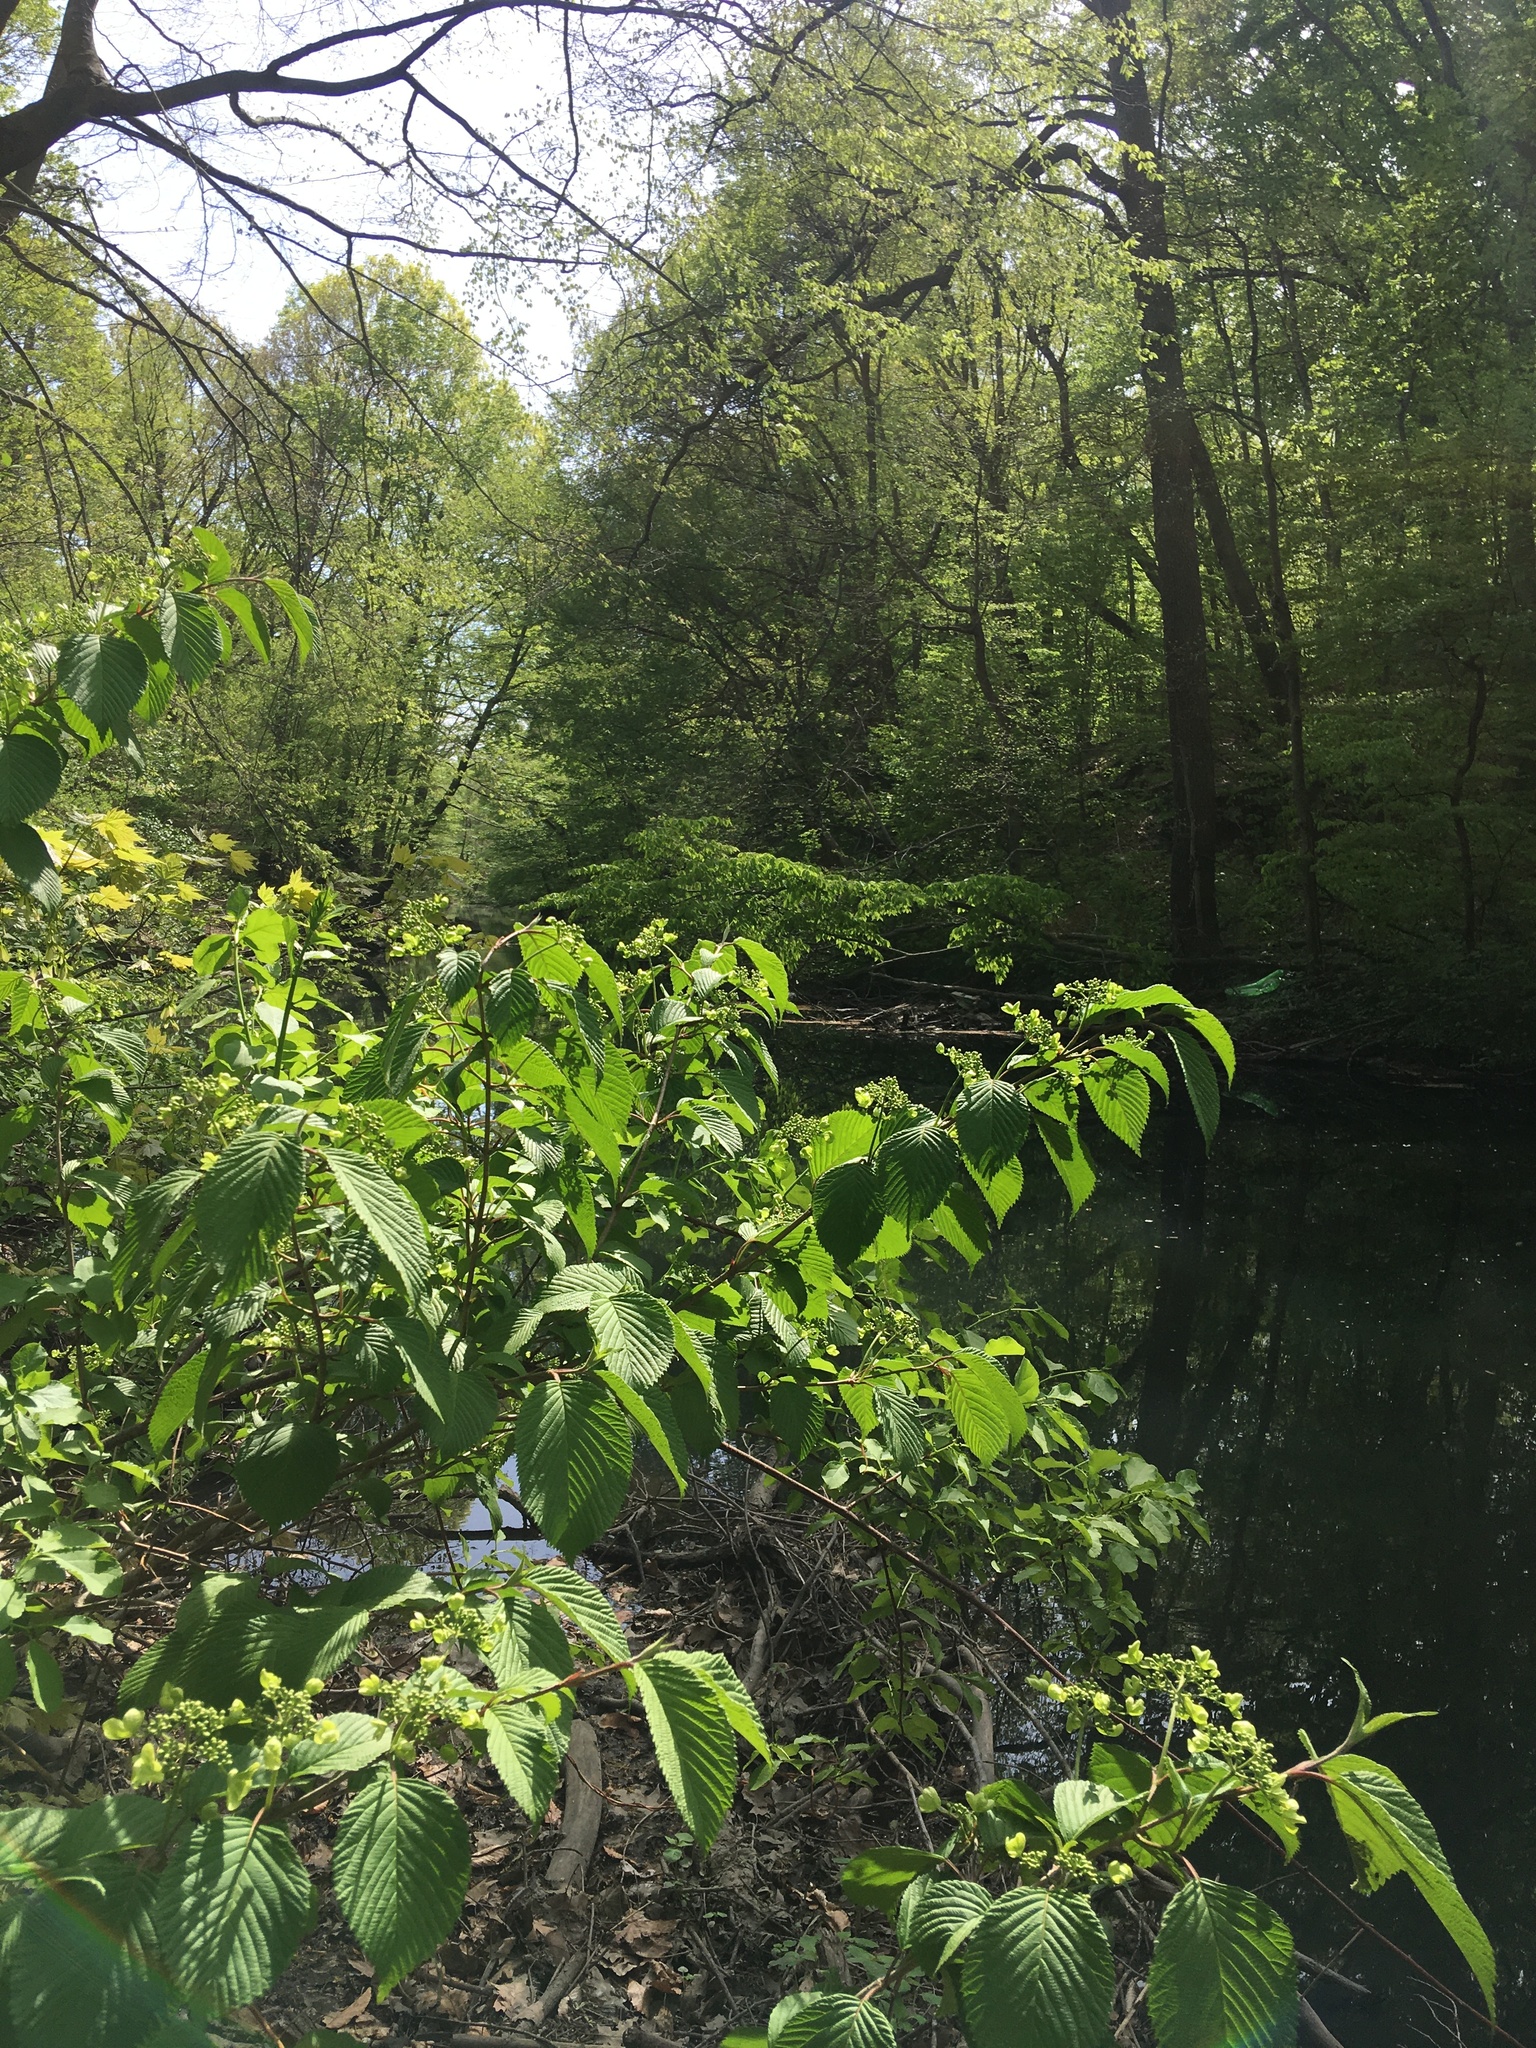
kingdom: Plantae
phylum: Tracheophyta
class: Magnoliopsida
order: Dipsacales
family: Viburnaceae
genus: Viburnum
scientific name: Viburnum plicatum
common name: Japanese snowball
